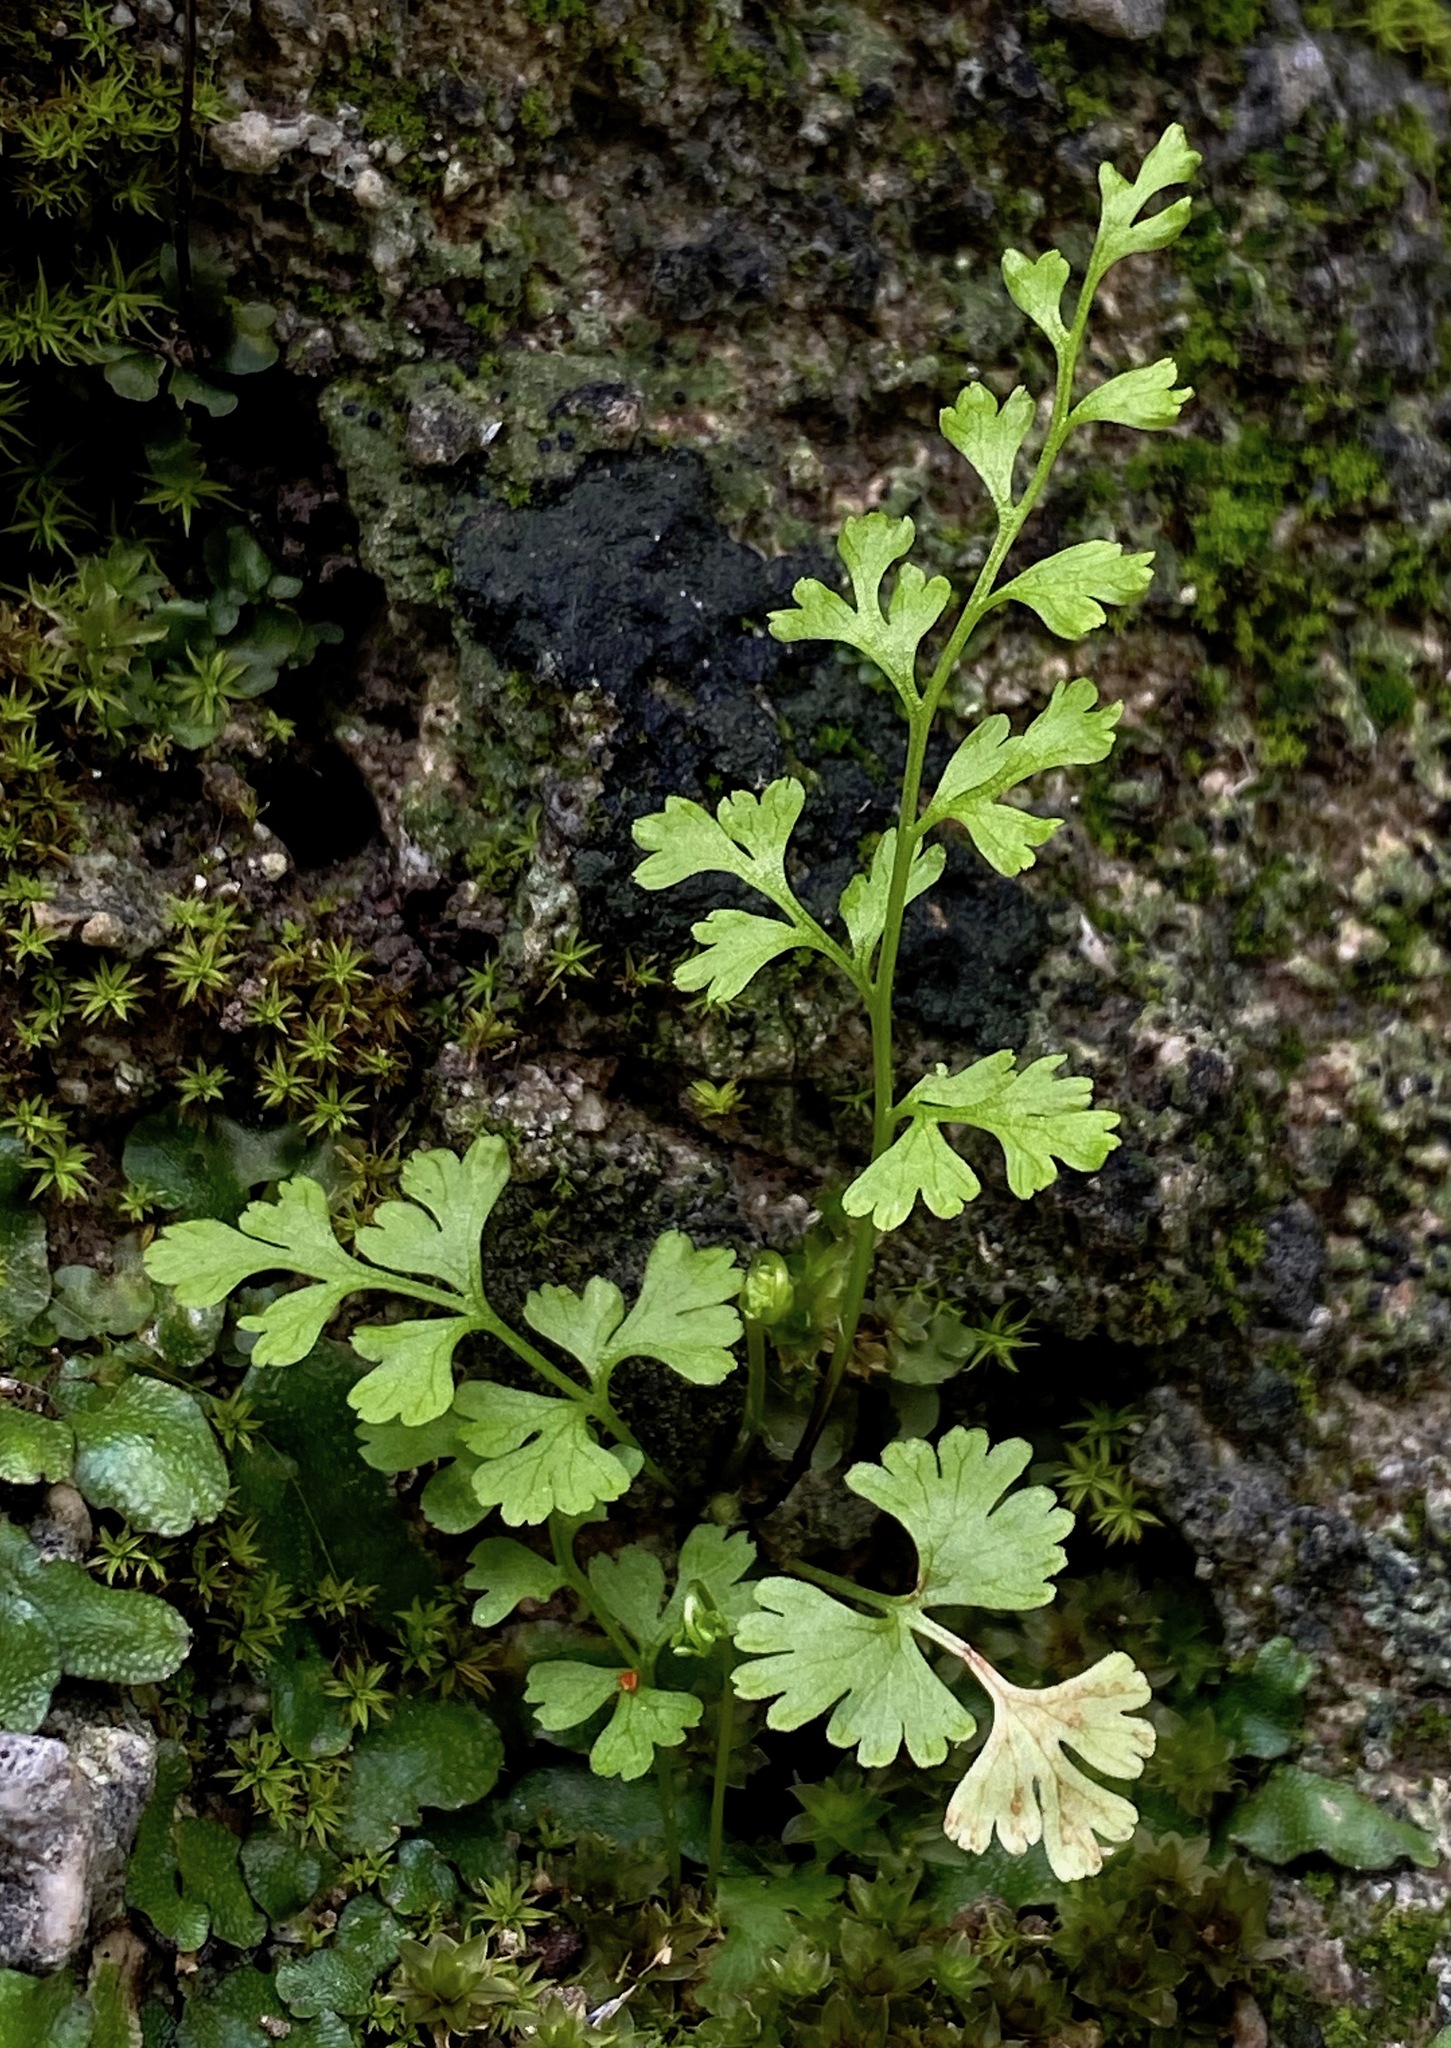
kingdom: Plantae
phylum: Tracheophyta
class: Polypodiopsida
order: Polypodiales
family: Pteridaceae
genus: Anogramma
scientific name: Anogramma leptophylla
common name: Jersey fern
